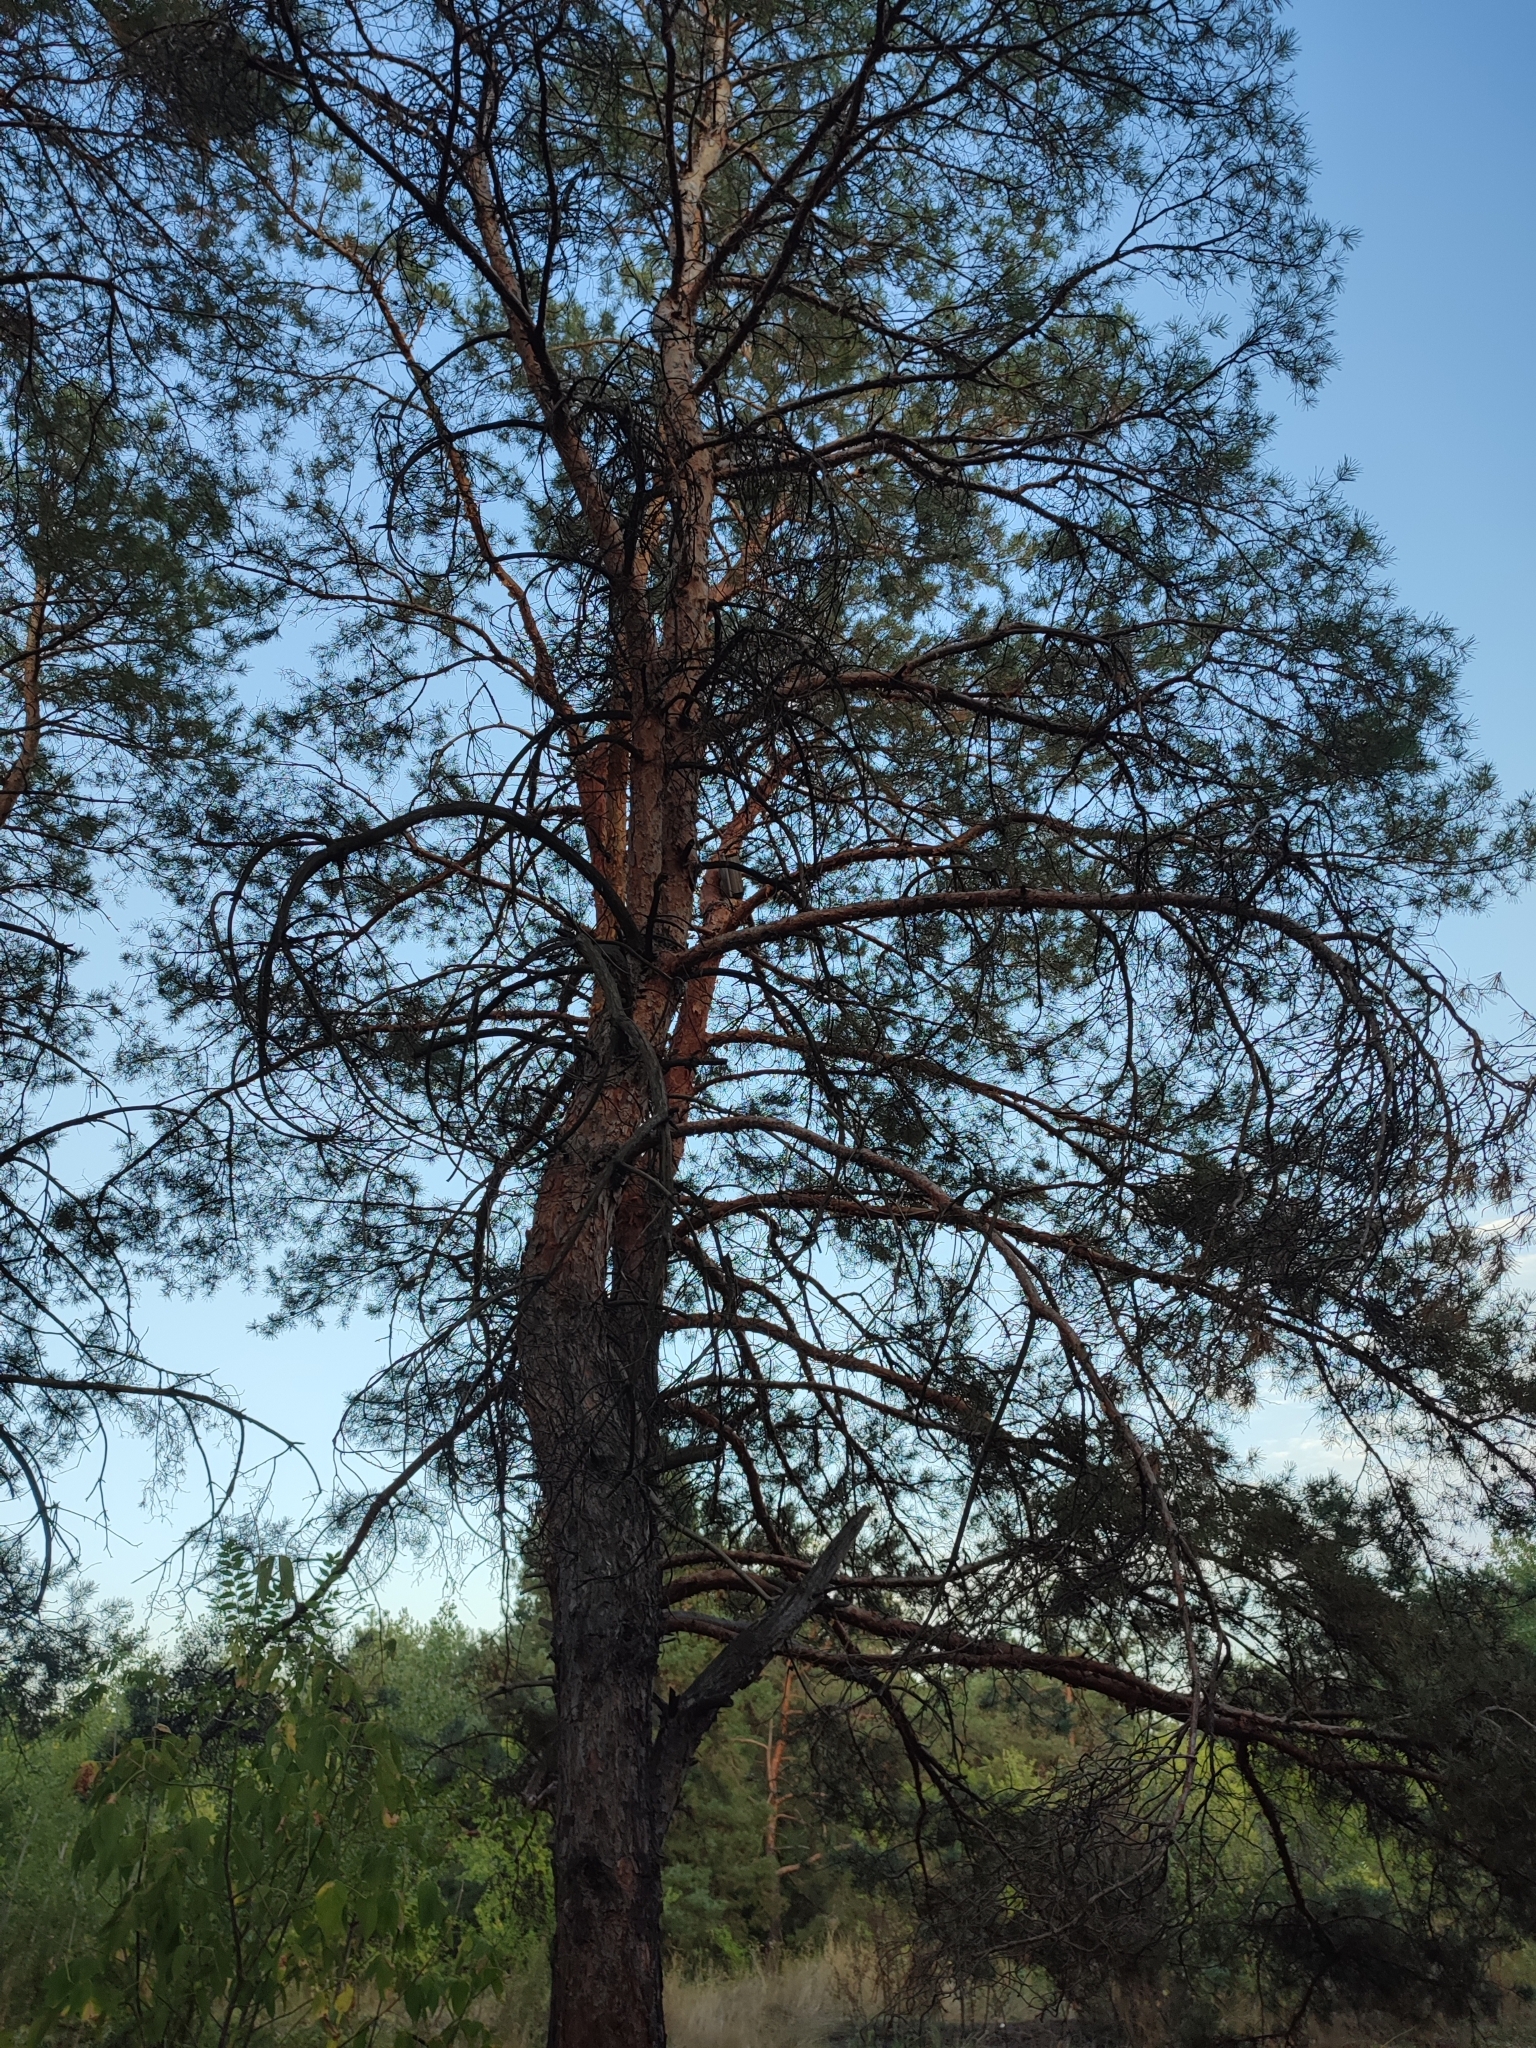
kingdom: Plantae
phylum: Tracheophyta
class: Pinopsida
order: Pinales
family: Pinaceae
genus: Pinus
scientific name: Pinus sylvestris
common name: Scots pine
